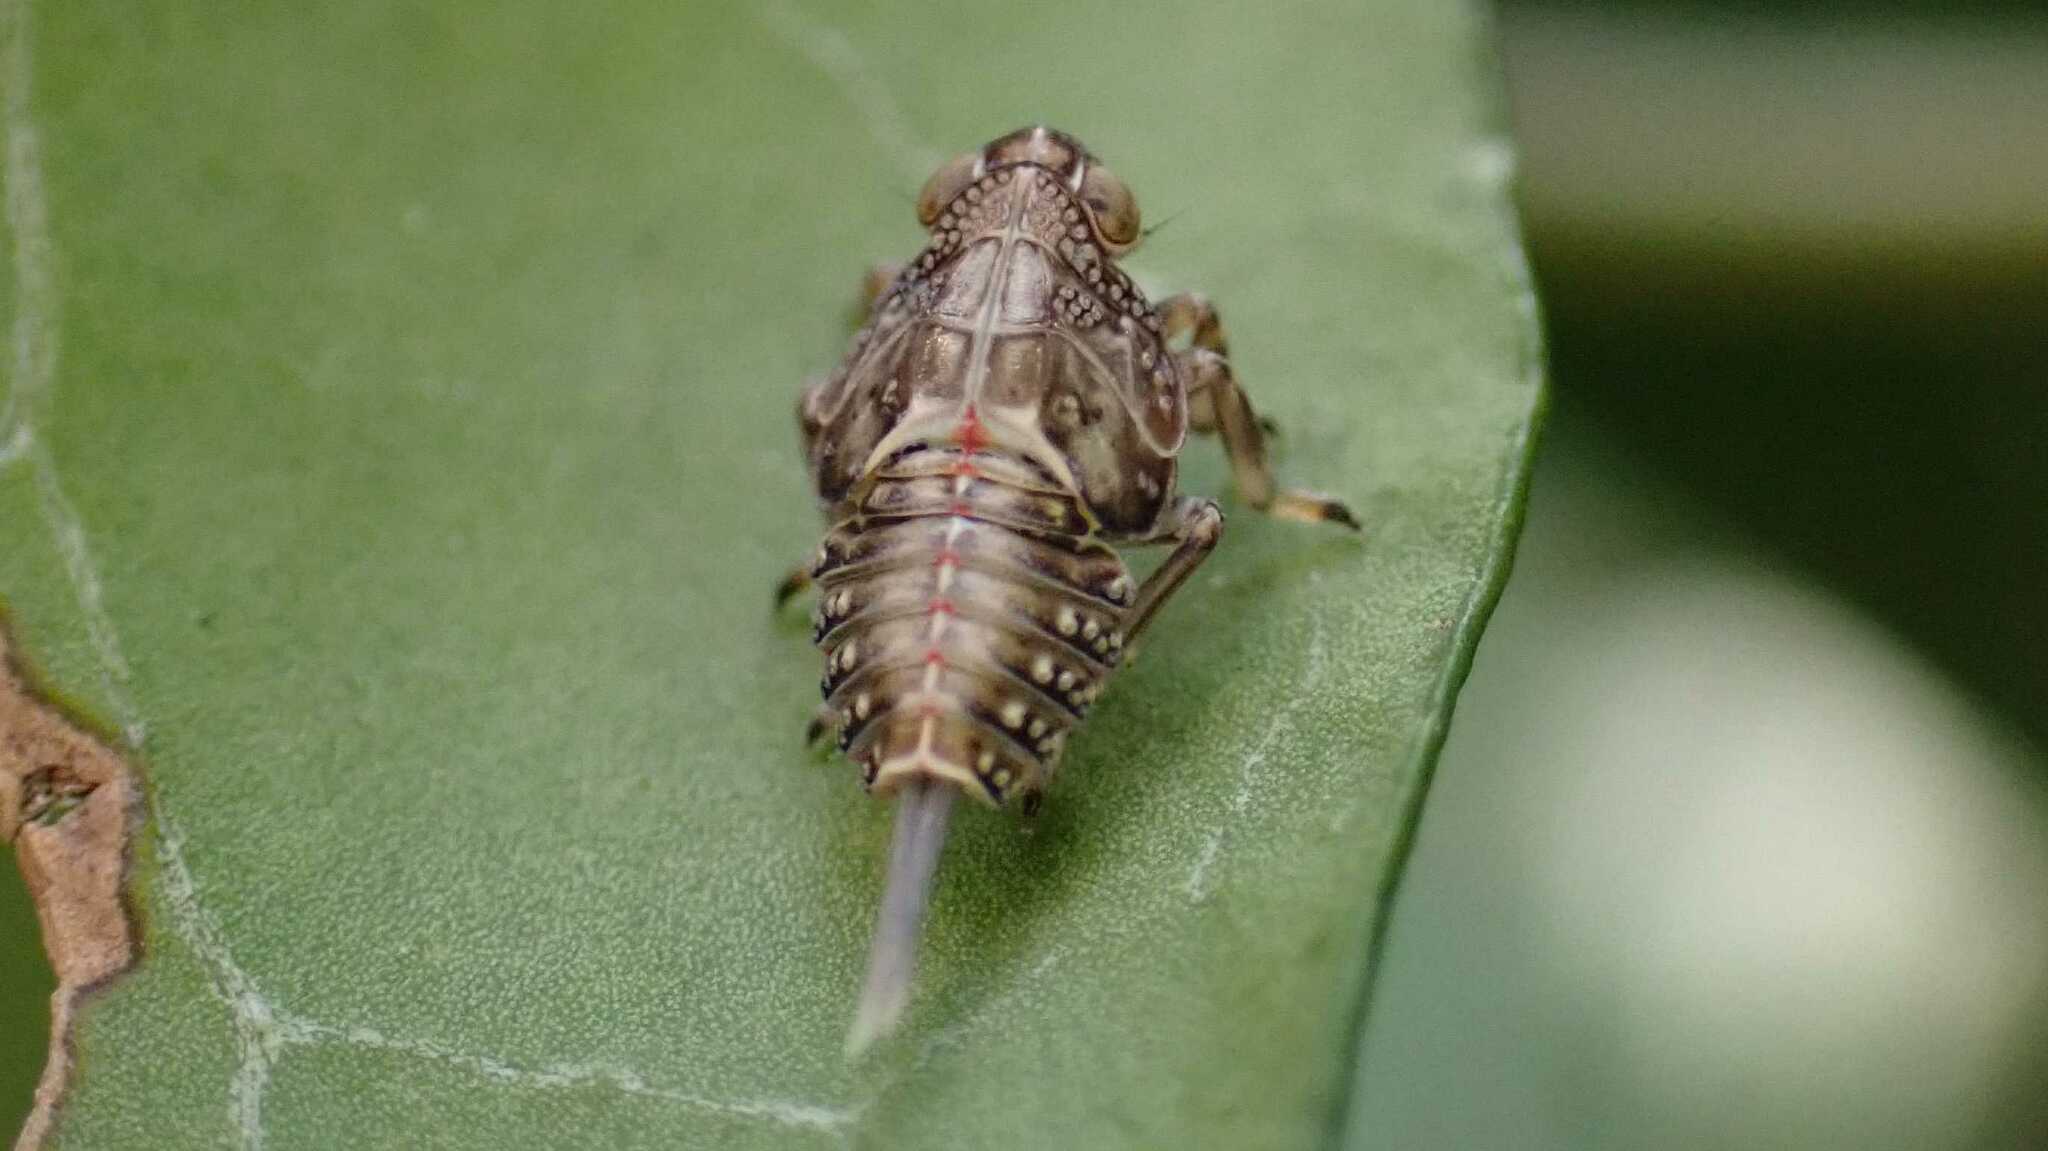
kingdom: Animalia
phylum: Arthropoda
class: Insecta
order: Hemiptera
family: Issidae
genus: Issus
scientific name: Issus
